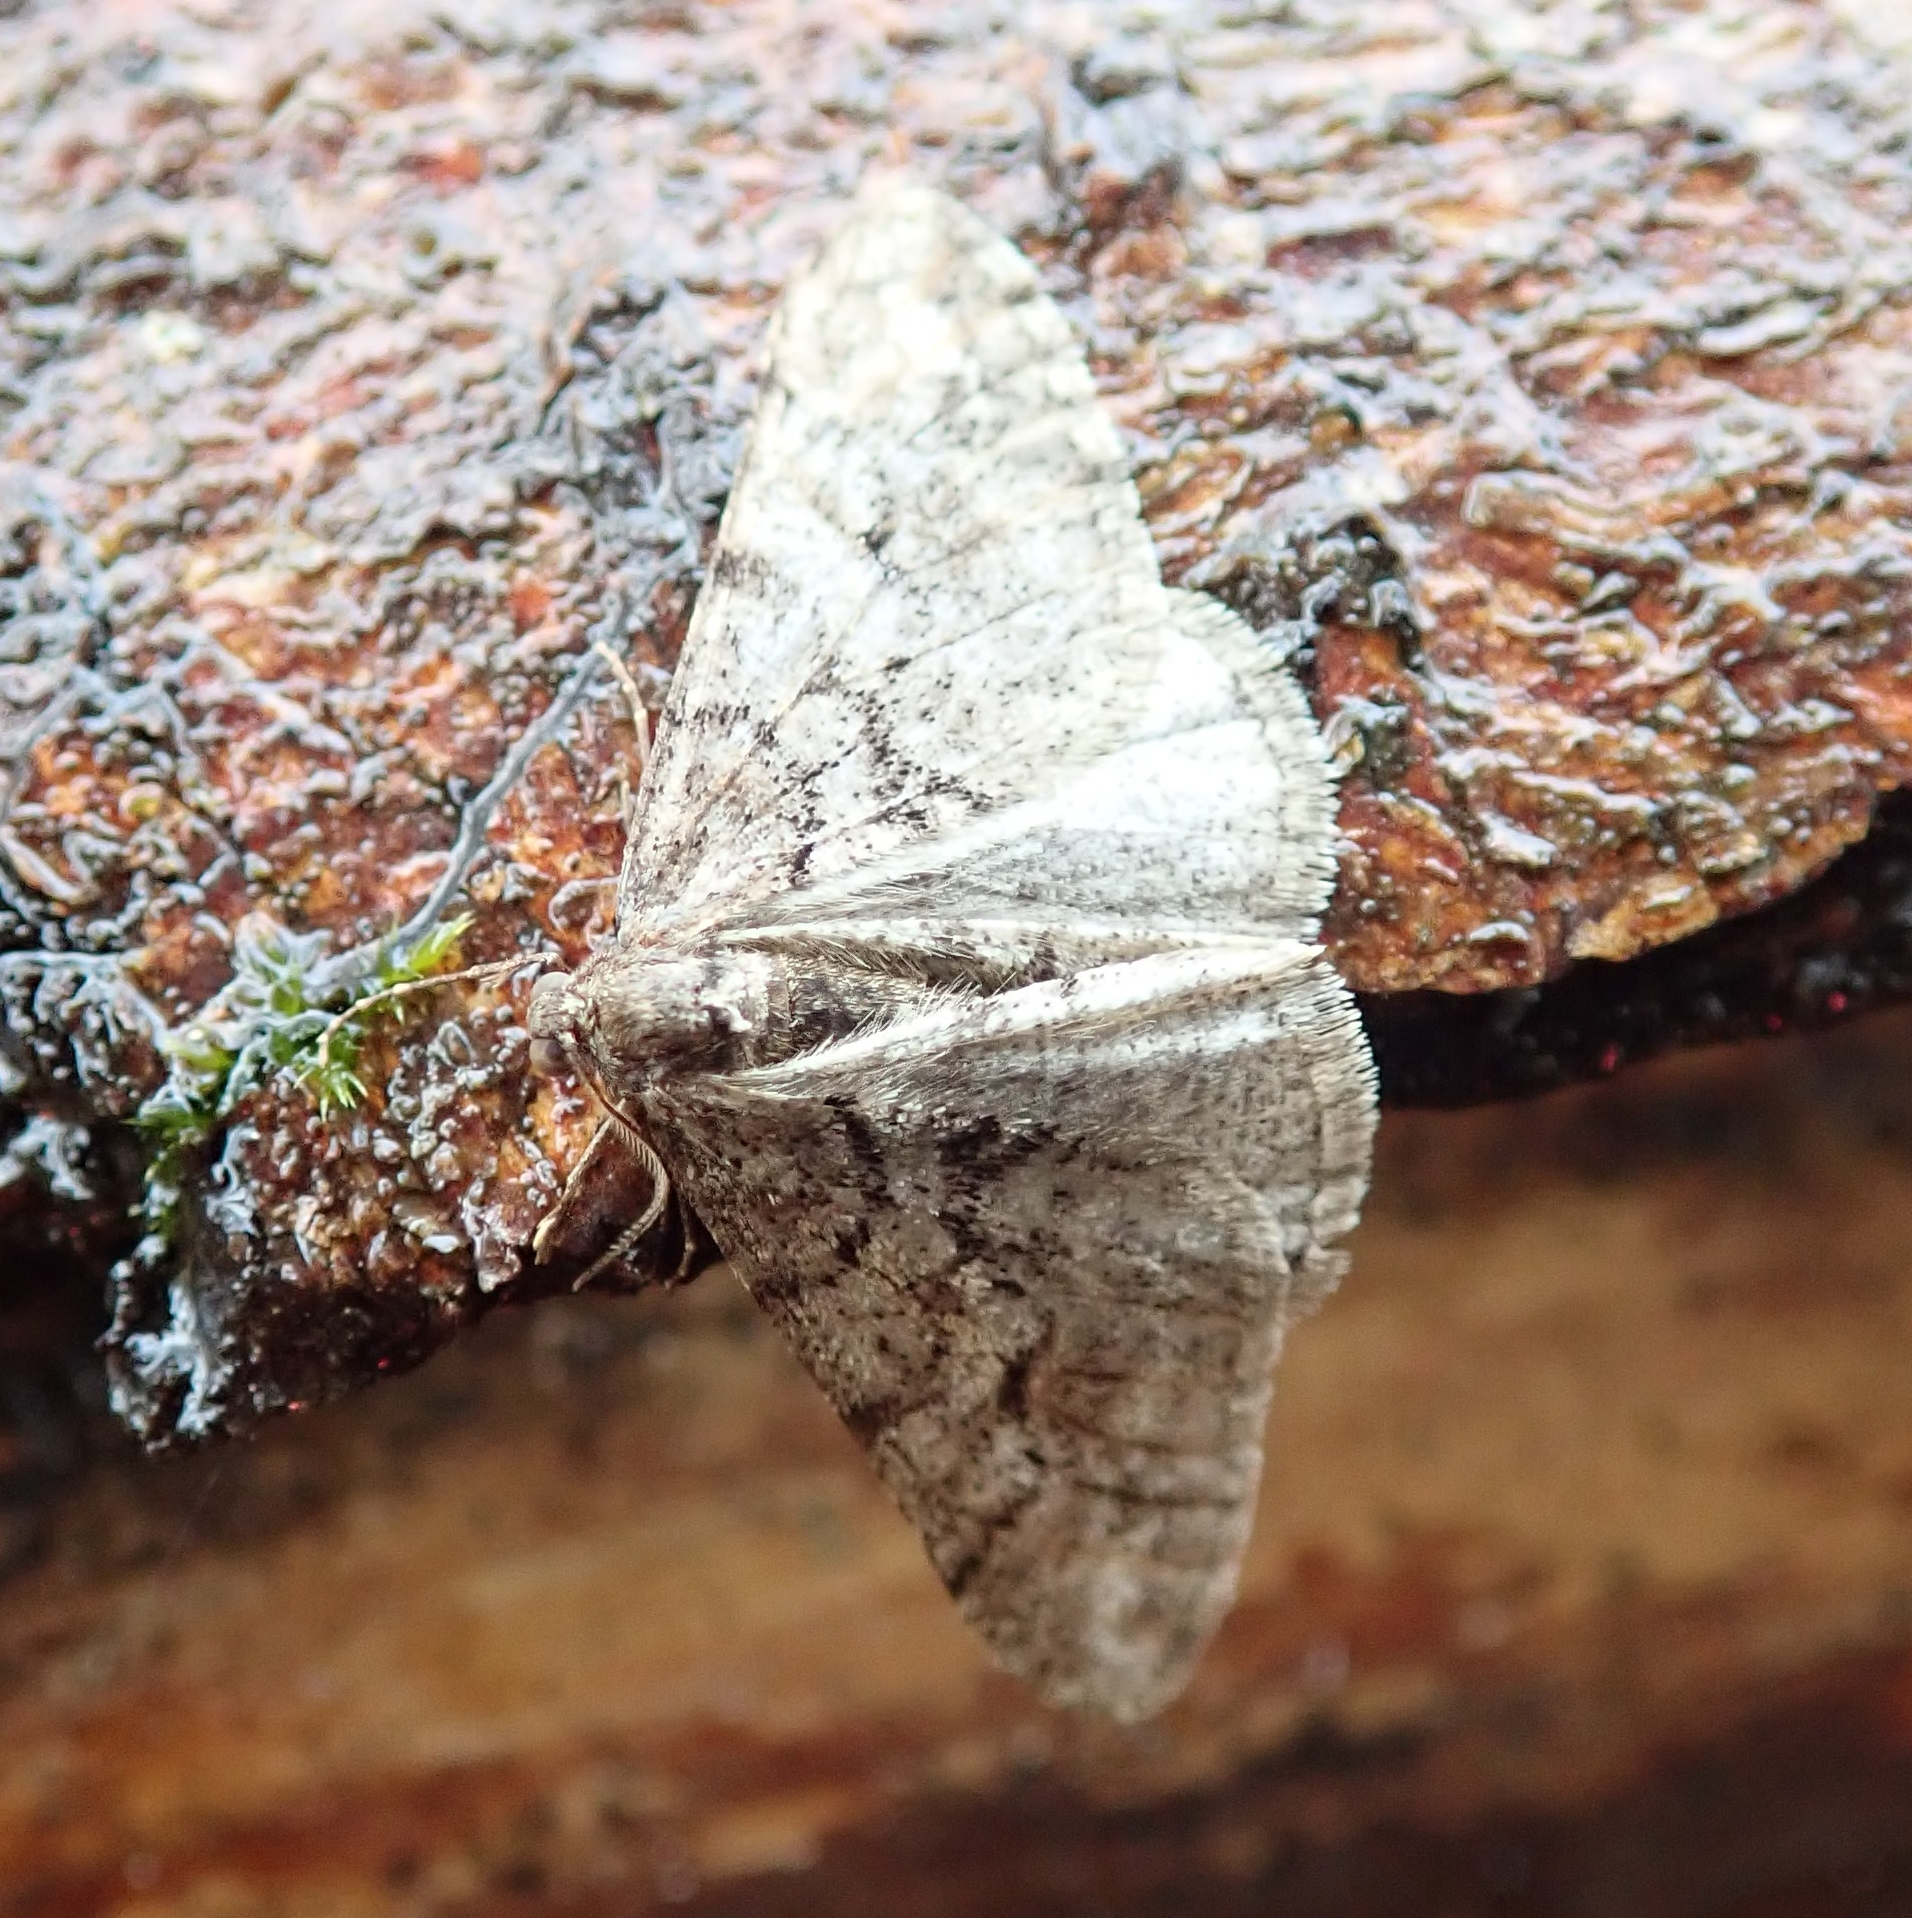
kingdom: Animalia
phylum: Arthropoda
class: Insecta
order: Lepidoptera
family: Geometridae
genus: Agriopis
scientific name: Agriopis leucophaearia
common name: Spring usher
